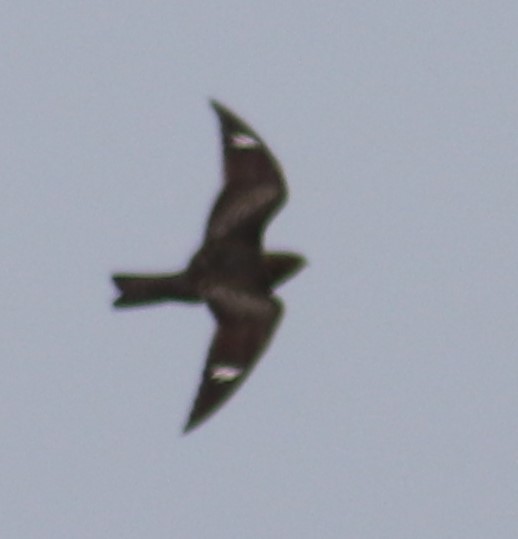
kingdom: Animalia
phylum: Chordata
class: Aves
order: Caprimulgiformes
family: Caprimulgidae
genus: Chordeiles
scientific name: Chordeiles minor
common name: Common nighthawk
